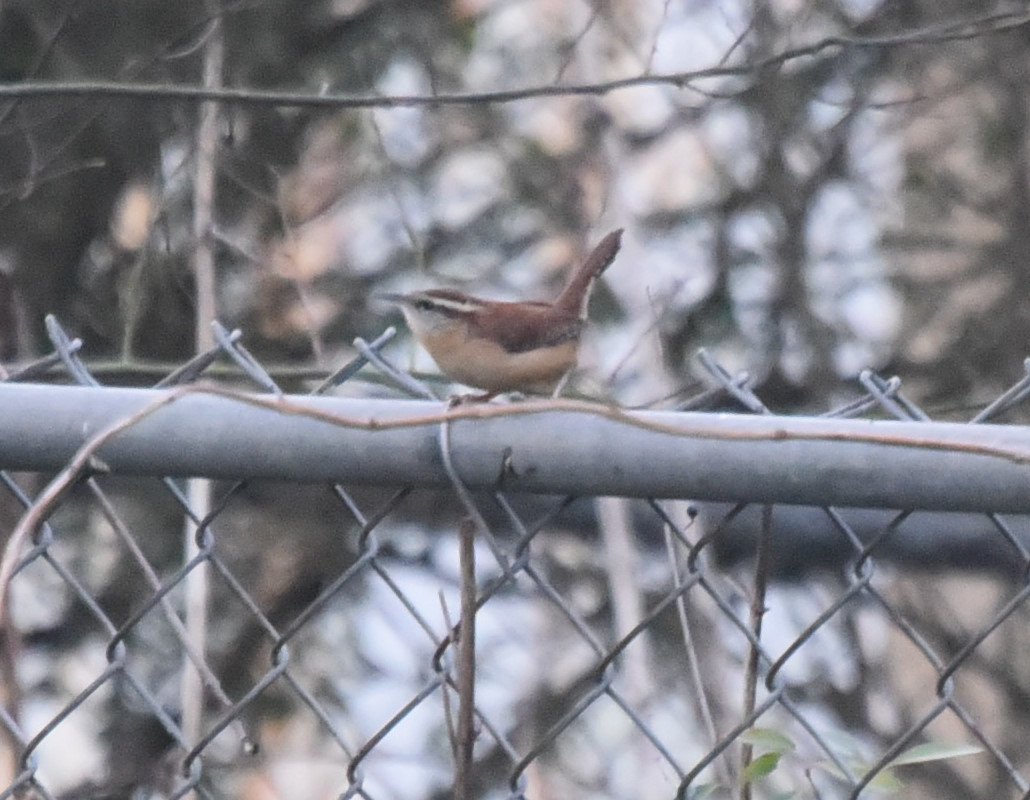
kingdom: Animalia
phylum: Chordata
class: Aves
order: Passeriformes
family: Troglodytidae
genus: Thryothorus
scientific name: Thryothorus ludovicianus
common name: Carolina wren
